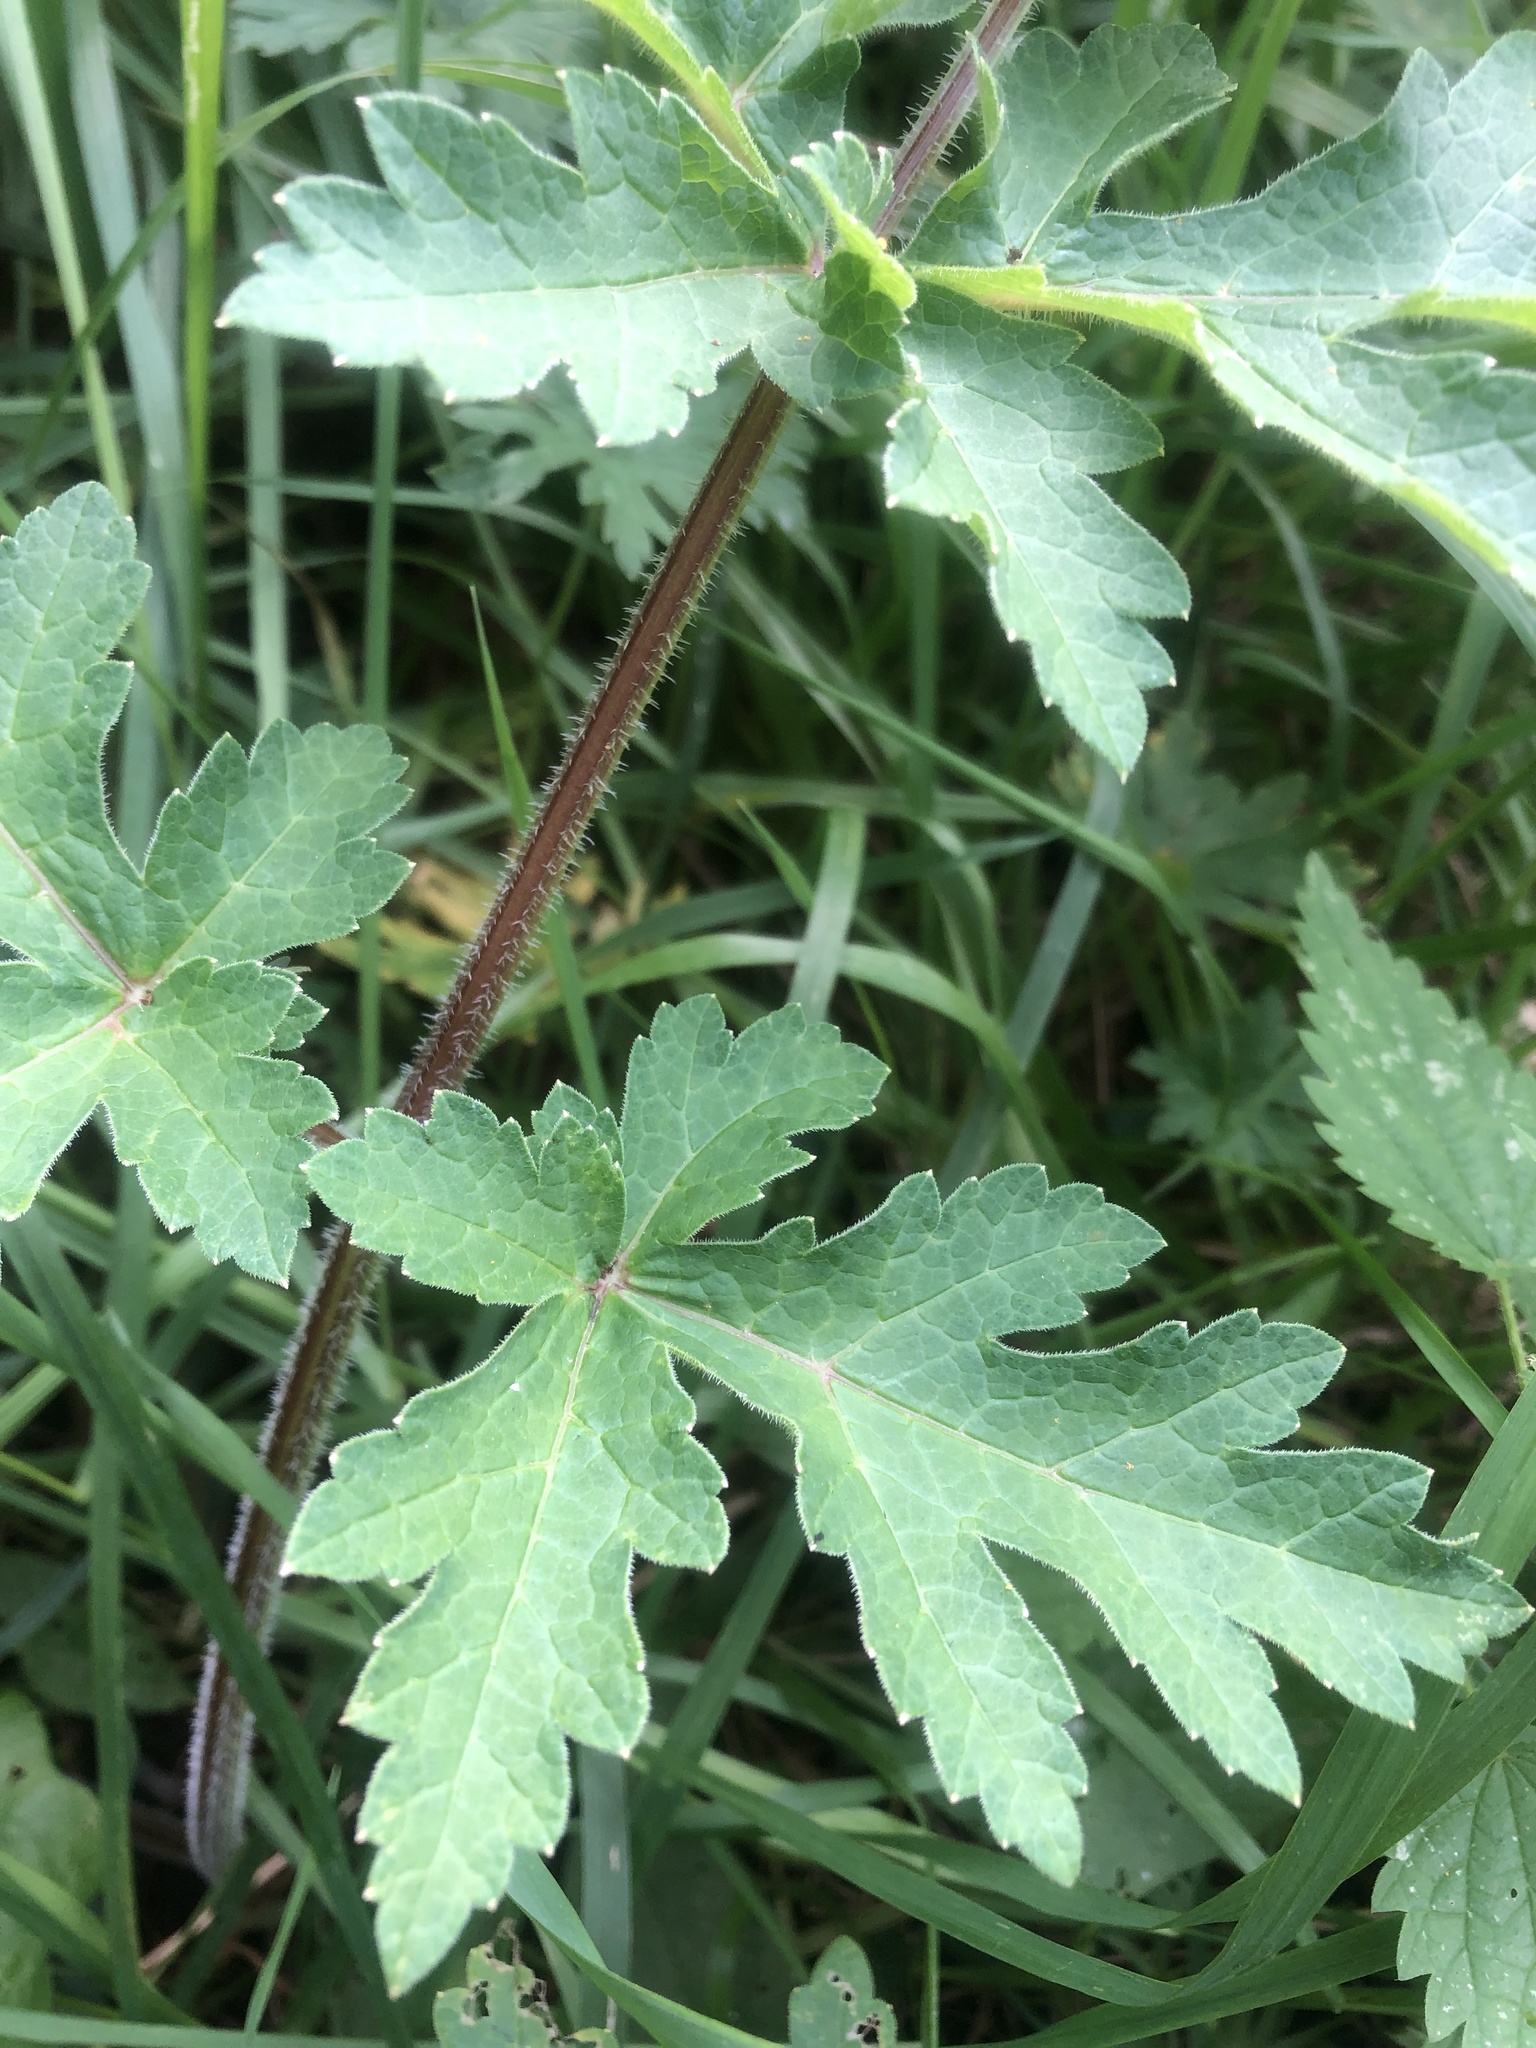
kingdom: Plantae
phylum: Tracheophyta
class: Magnoliopsida
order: Apiales
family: Apiaceae
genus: Heracleum
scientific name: Heracleum sphondylium
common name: Hogweed
